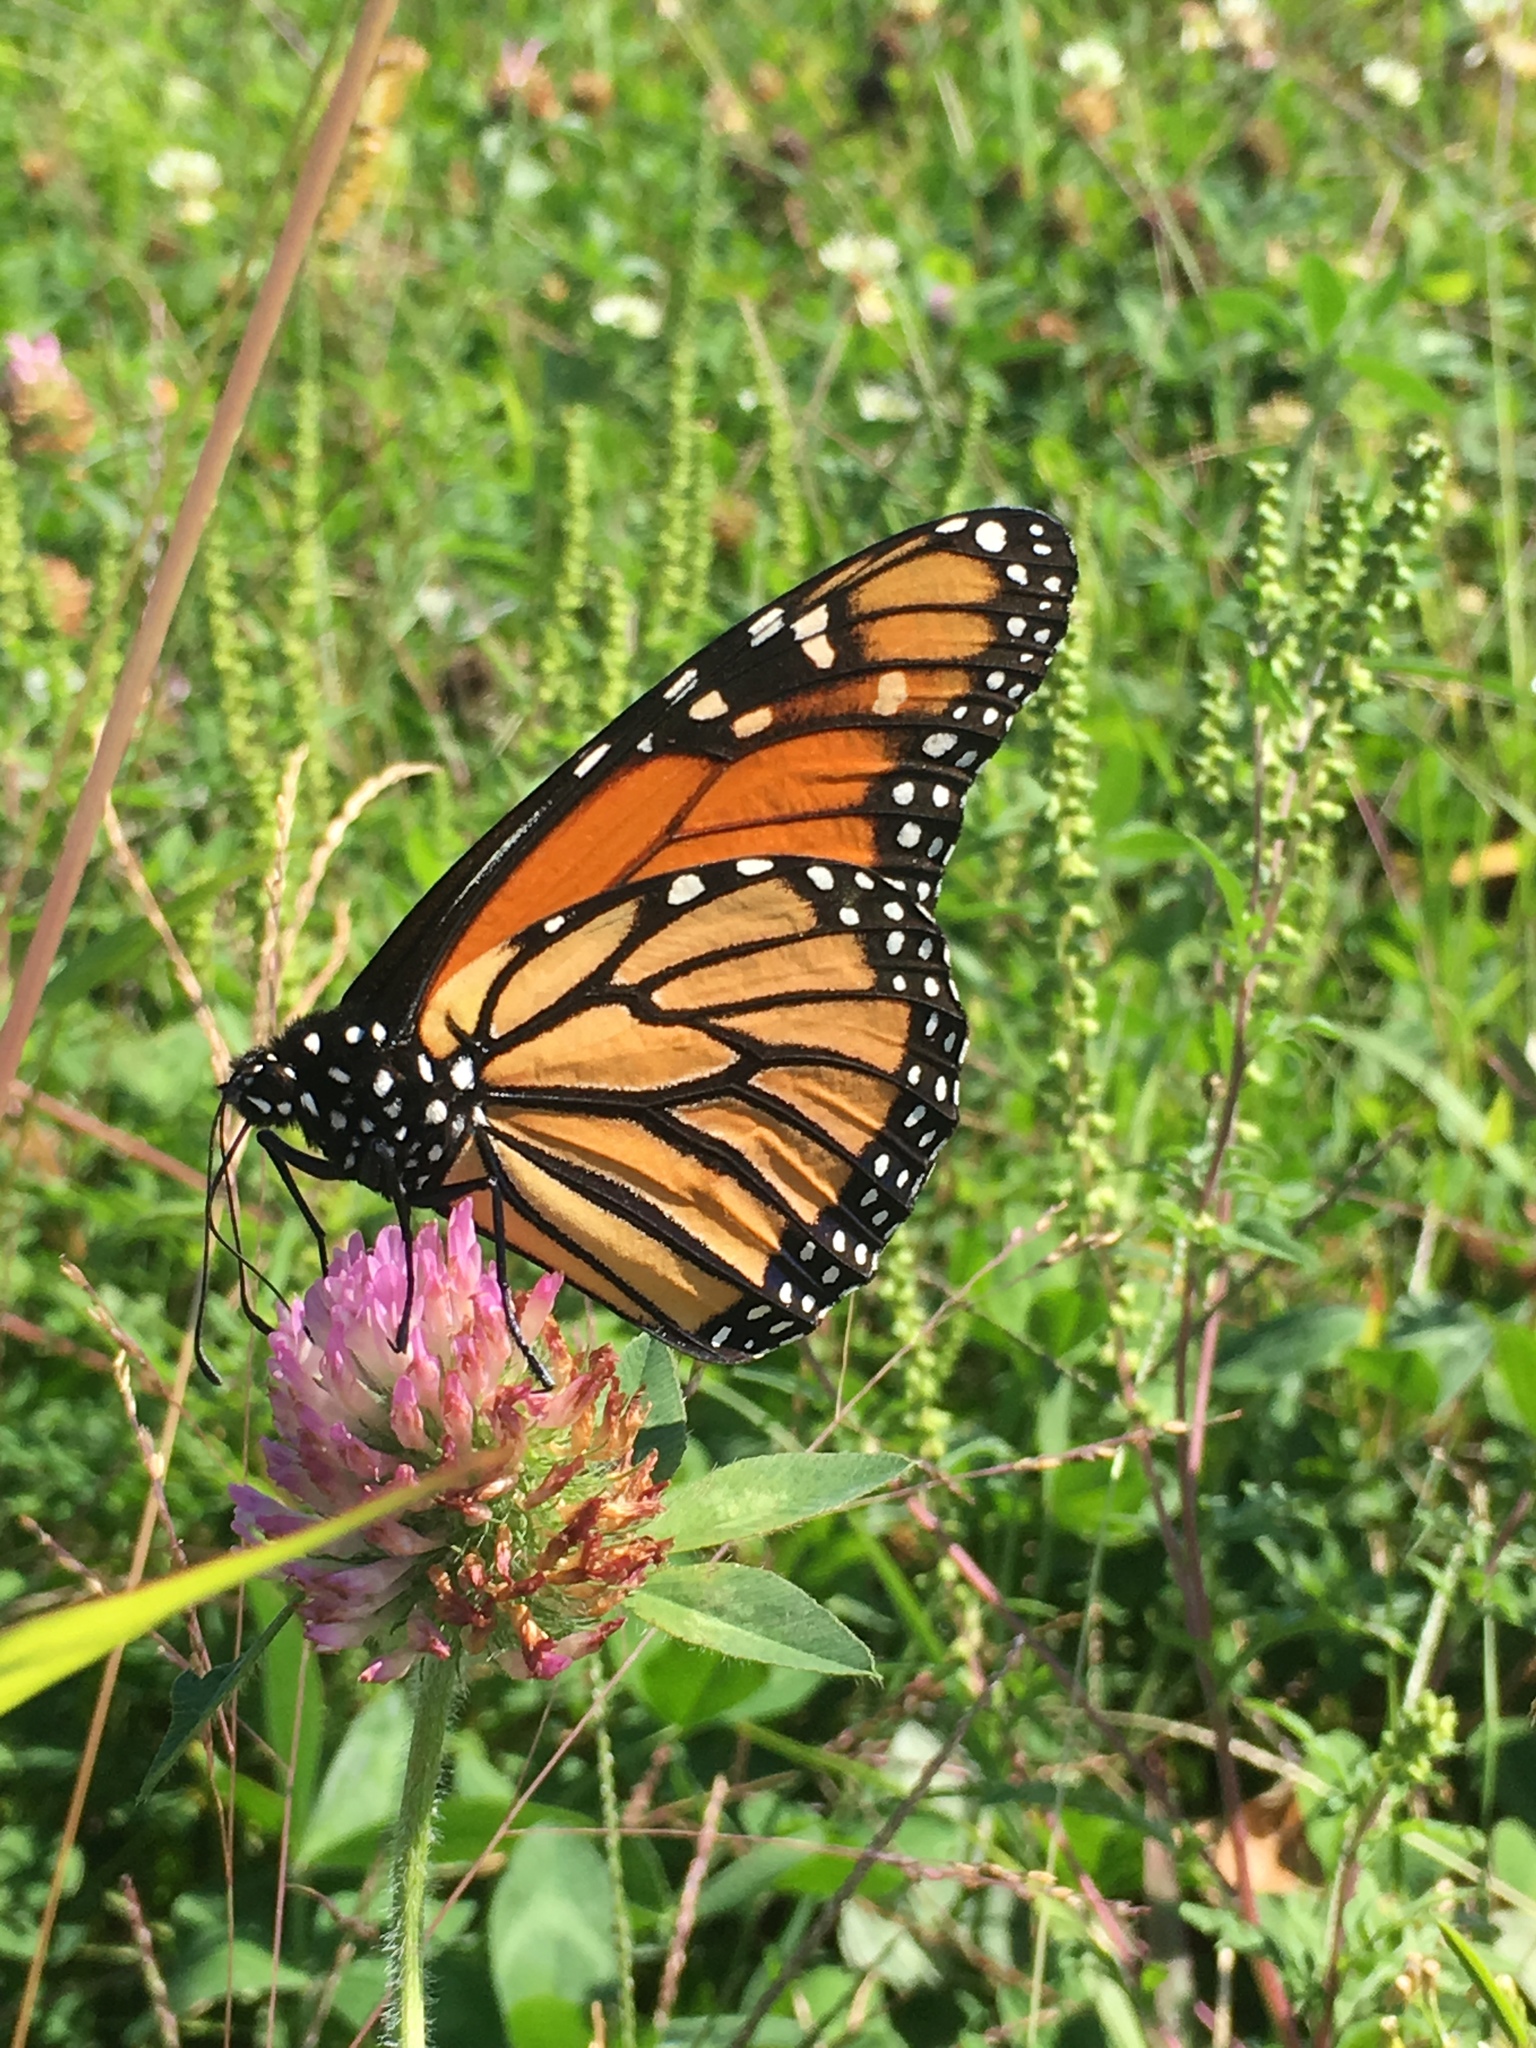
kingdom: Animalia
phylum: Arthropoda
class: Insecta
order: Lepidoptera
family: Nymphalidae
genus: Danaus
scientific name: Danaus plexippus
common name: Monarch
